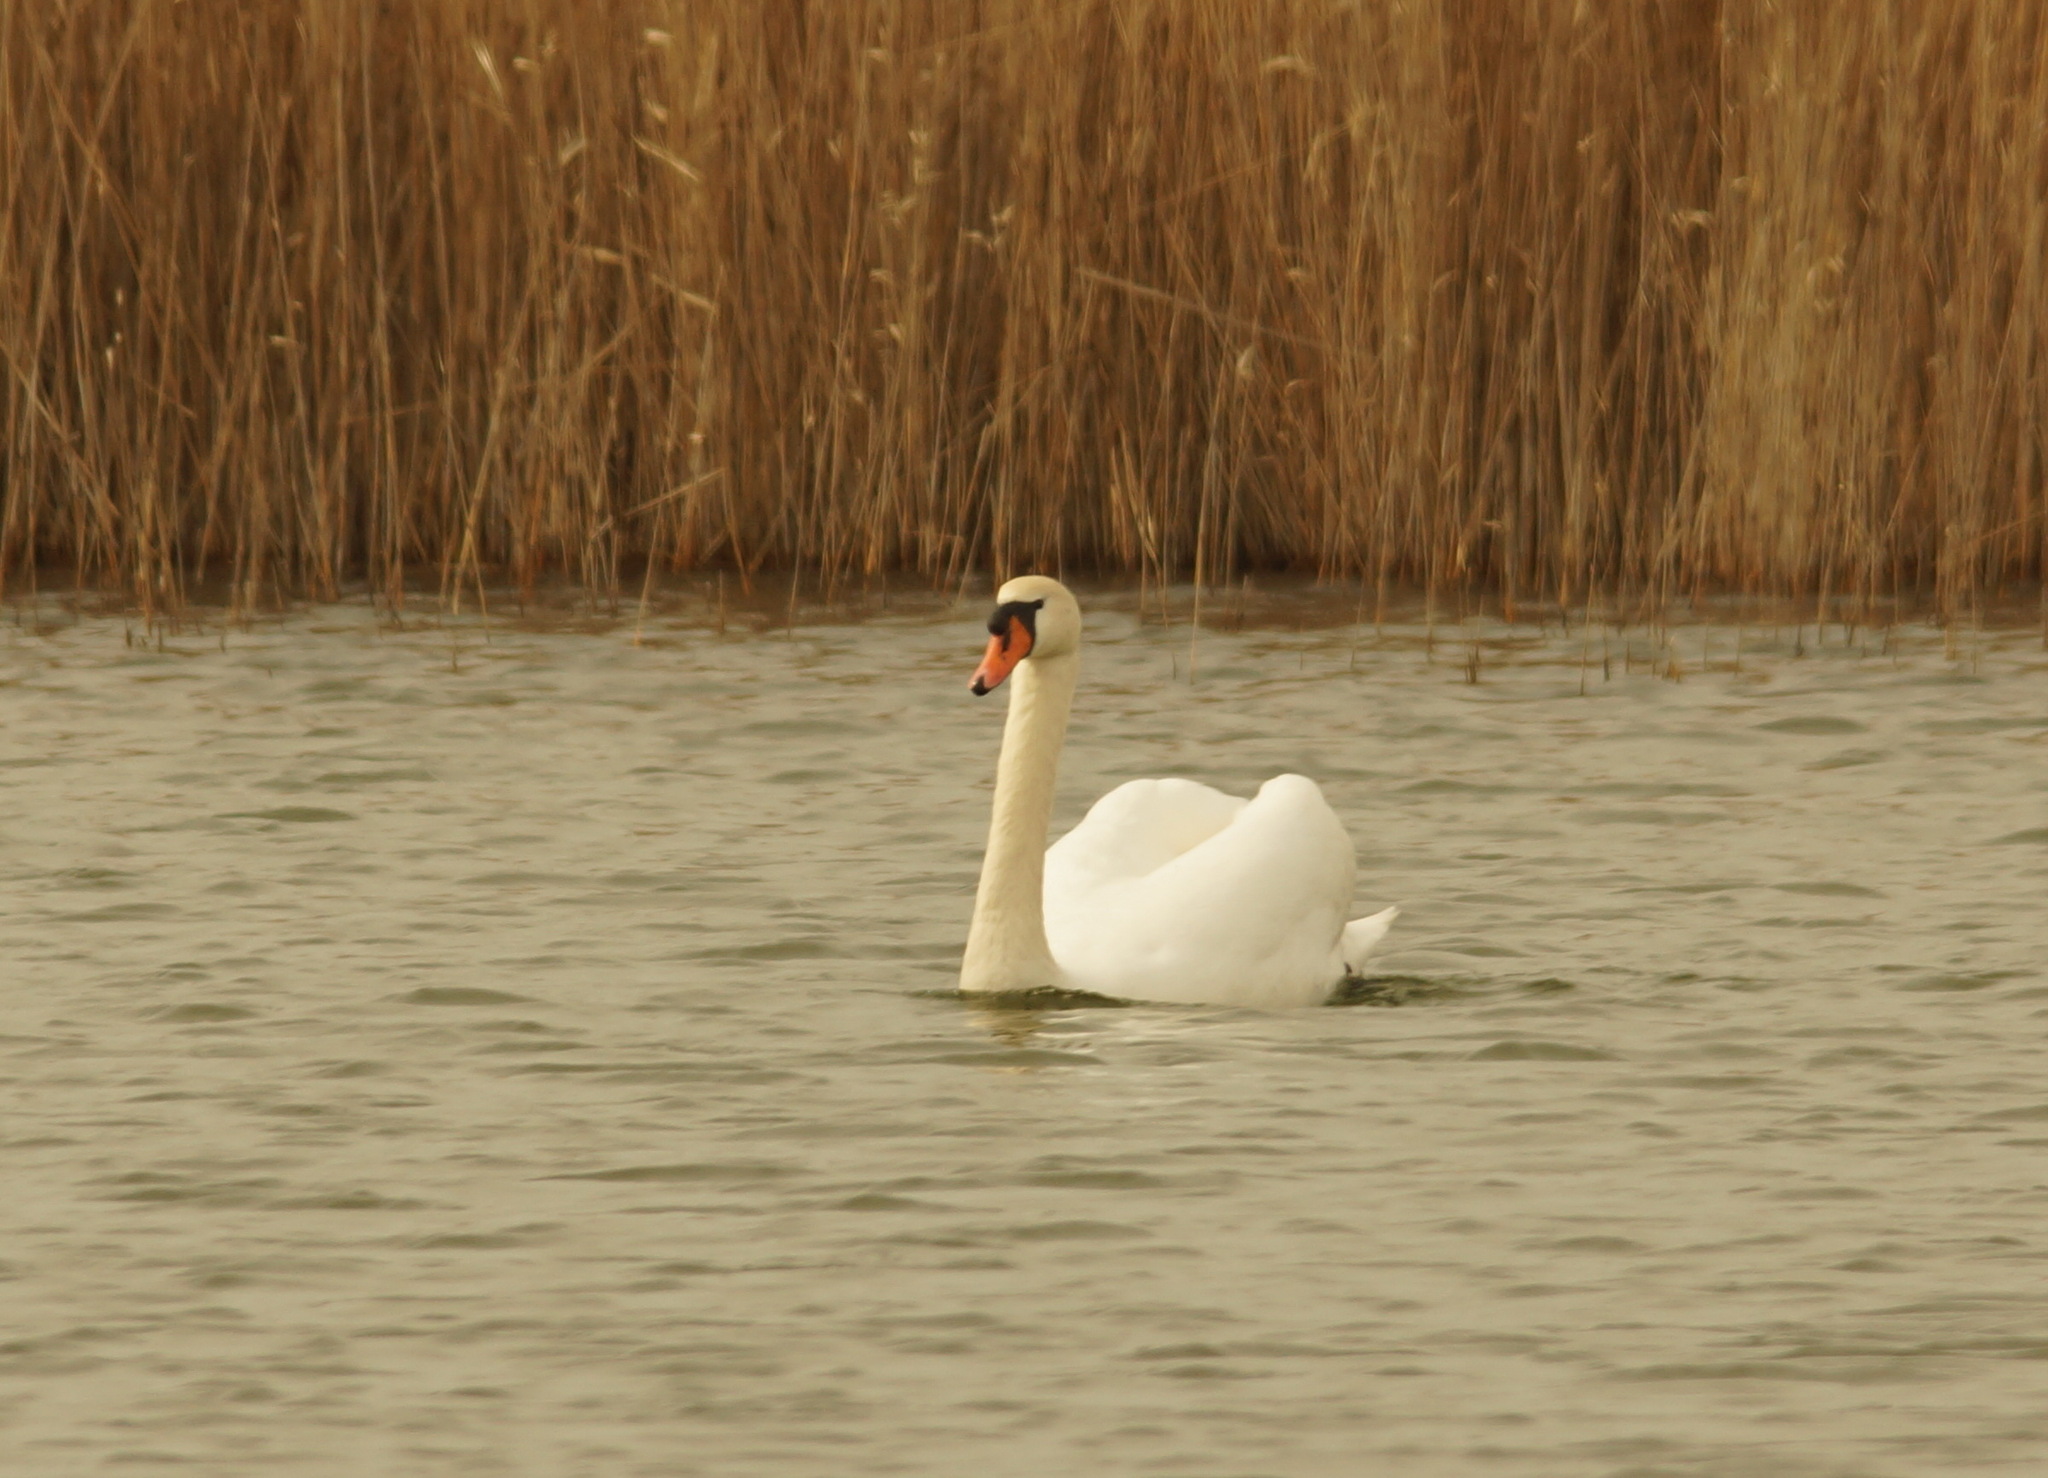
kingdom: Animalia
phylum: Chordata
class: Aves
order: Anseriformes
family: Anatidae
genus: Cygnus
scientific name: Cygnus olor
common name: Mute swan
